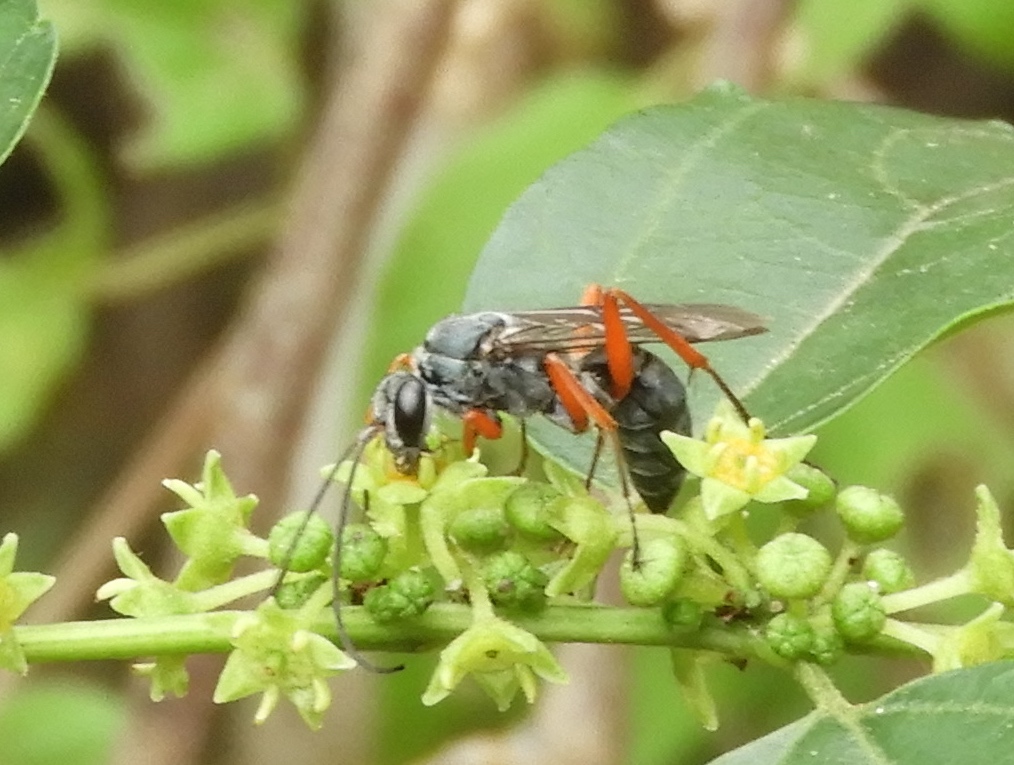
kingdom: Animalia
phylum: Arthropoda
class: Insecta
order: Hymenoptera
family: Pompilidae
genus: Auplopus
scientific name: Auplopus
